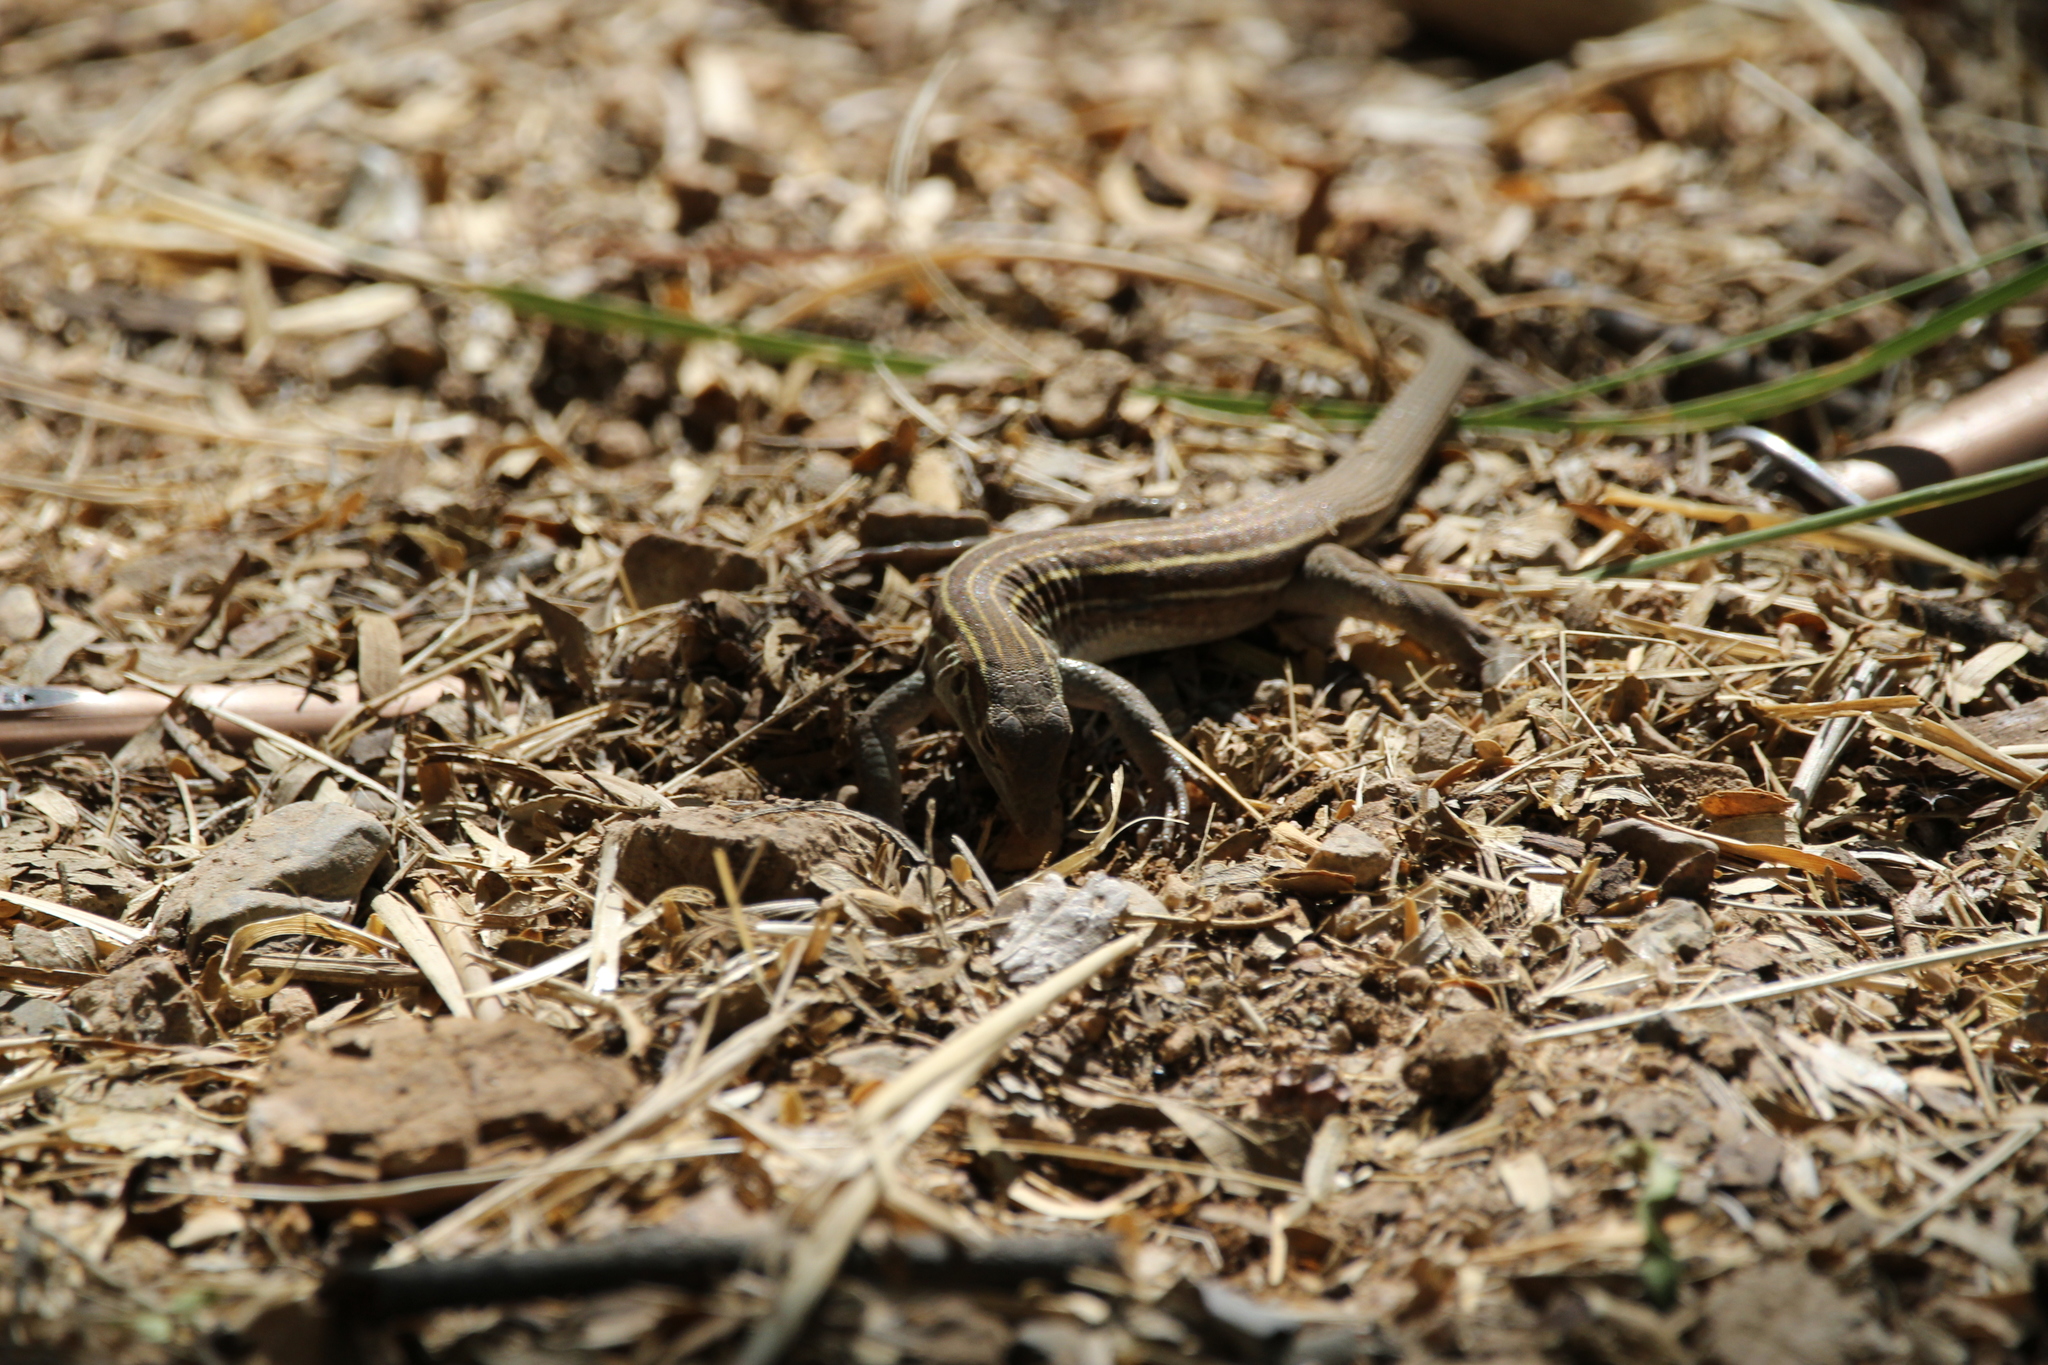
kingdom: Animalia
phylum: Chordata
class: Squamata
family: Teiidae
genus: Aspidoscelis
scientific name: Aspidoscelis sonorae
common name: Sonoran spotted whiptail
